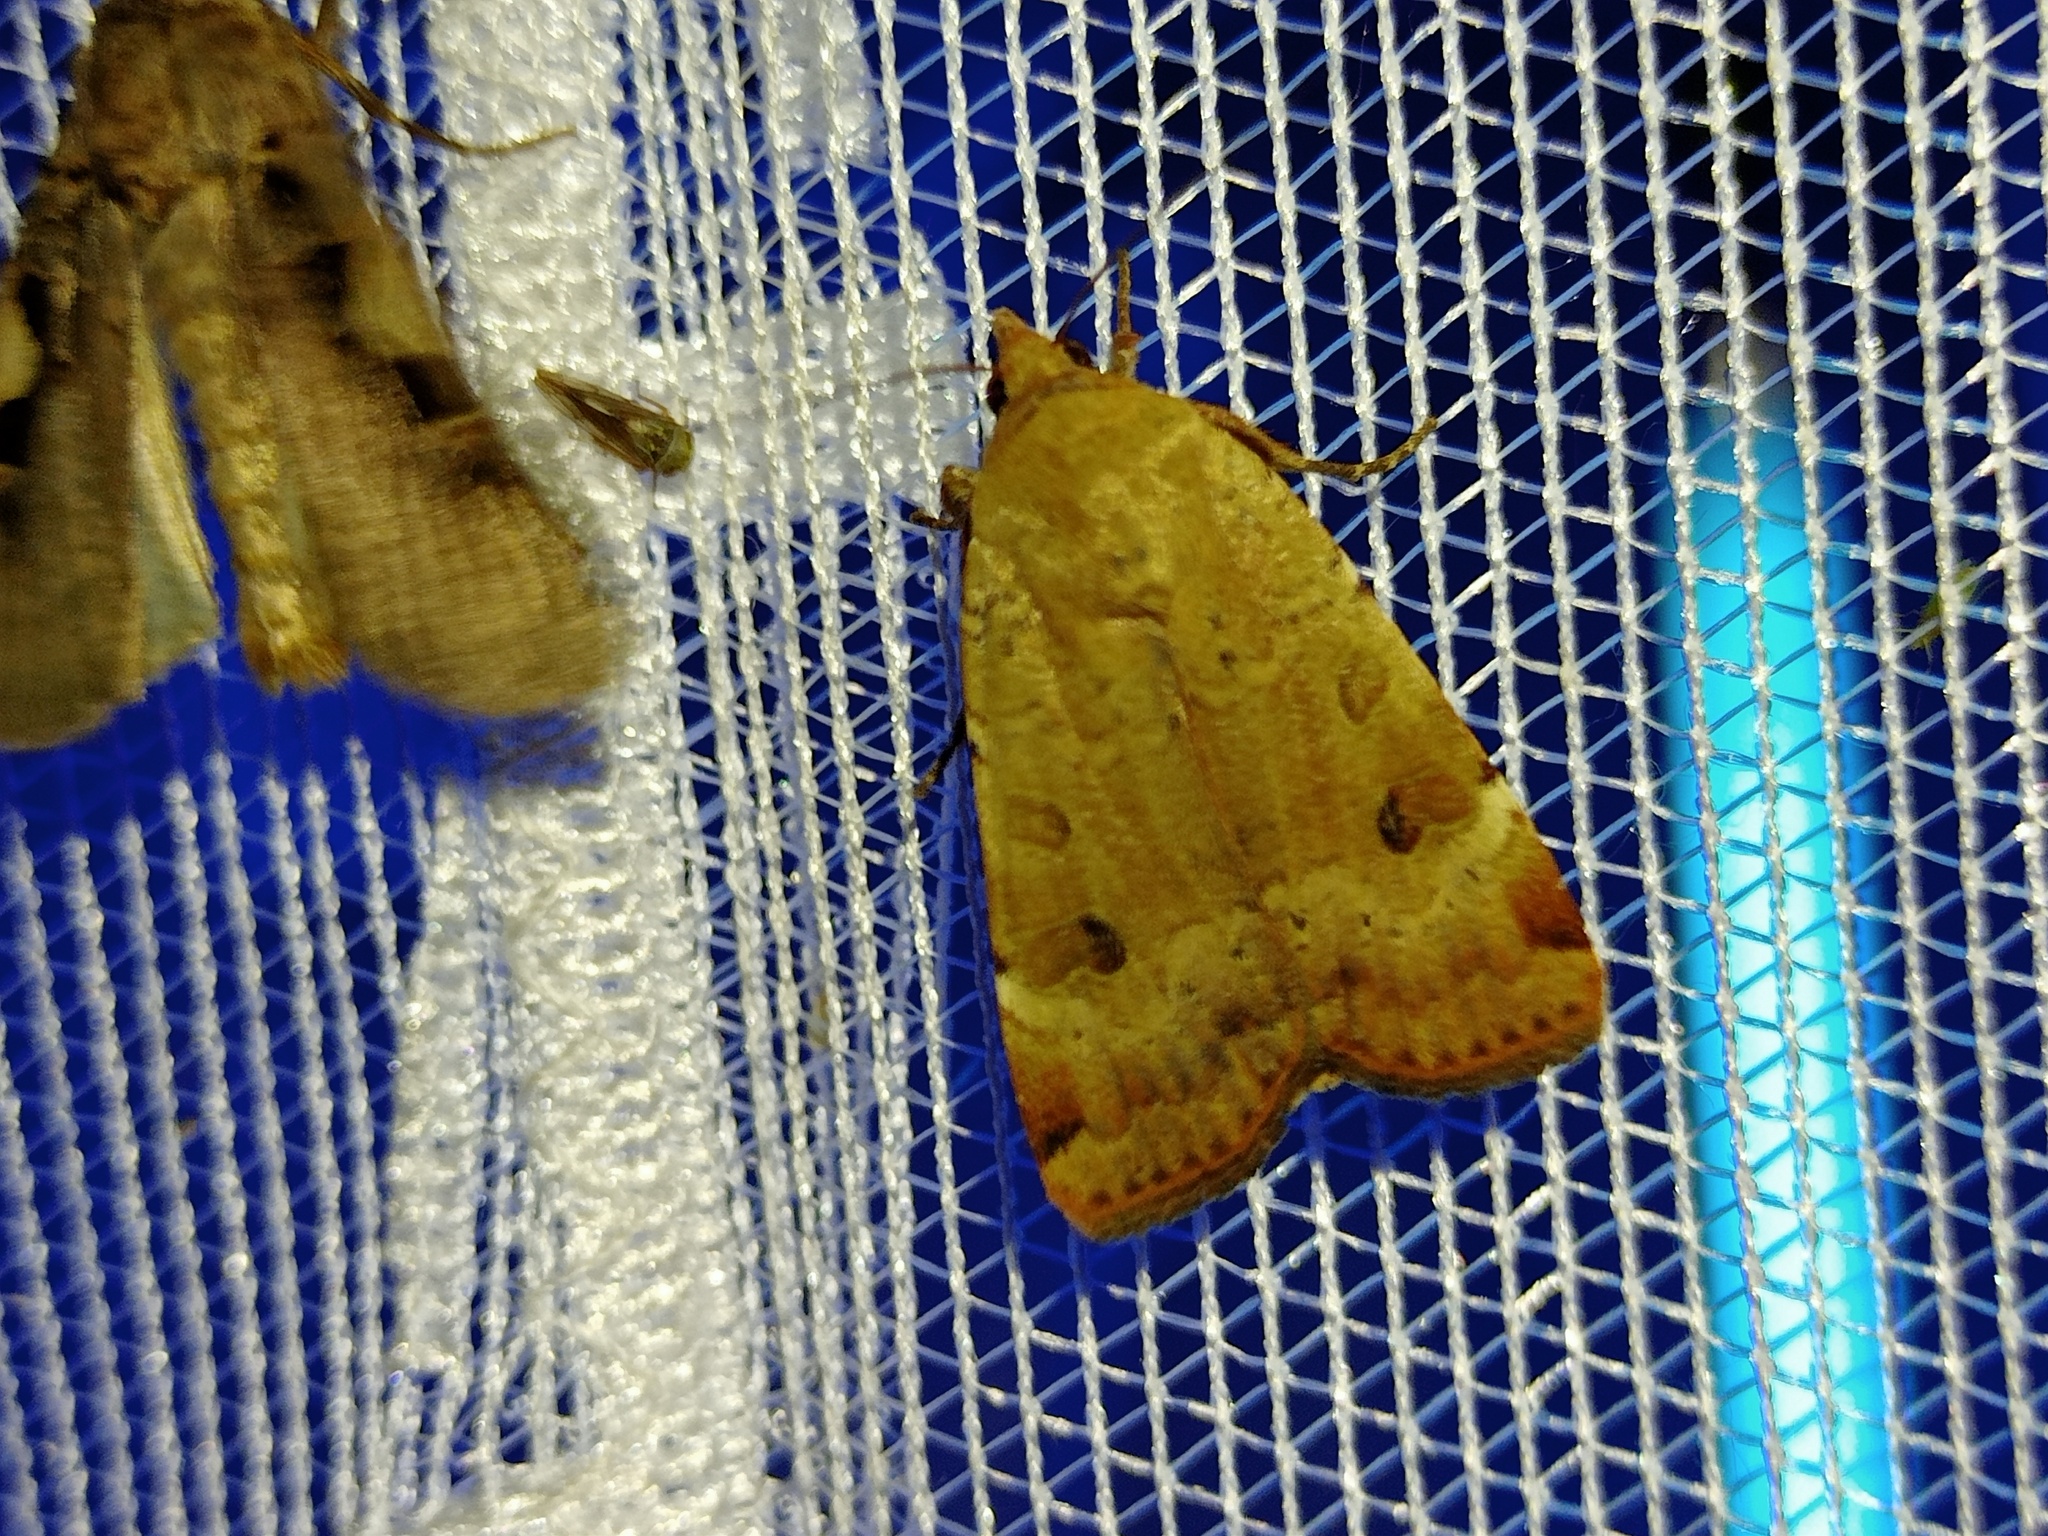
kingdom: Animalia
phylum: Arthropoda
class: Insecta
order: Lepidoptera
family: Noctuidae
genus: Noctua
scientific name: Noctua interposita
